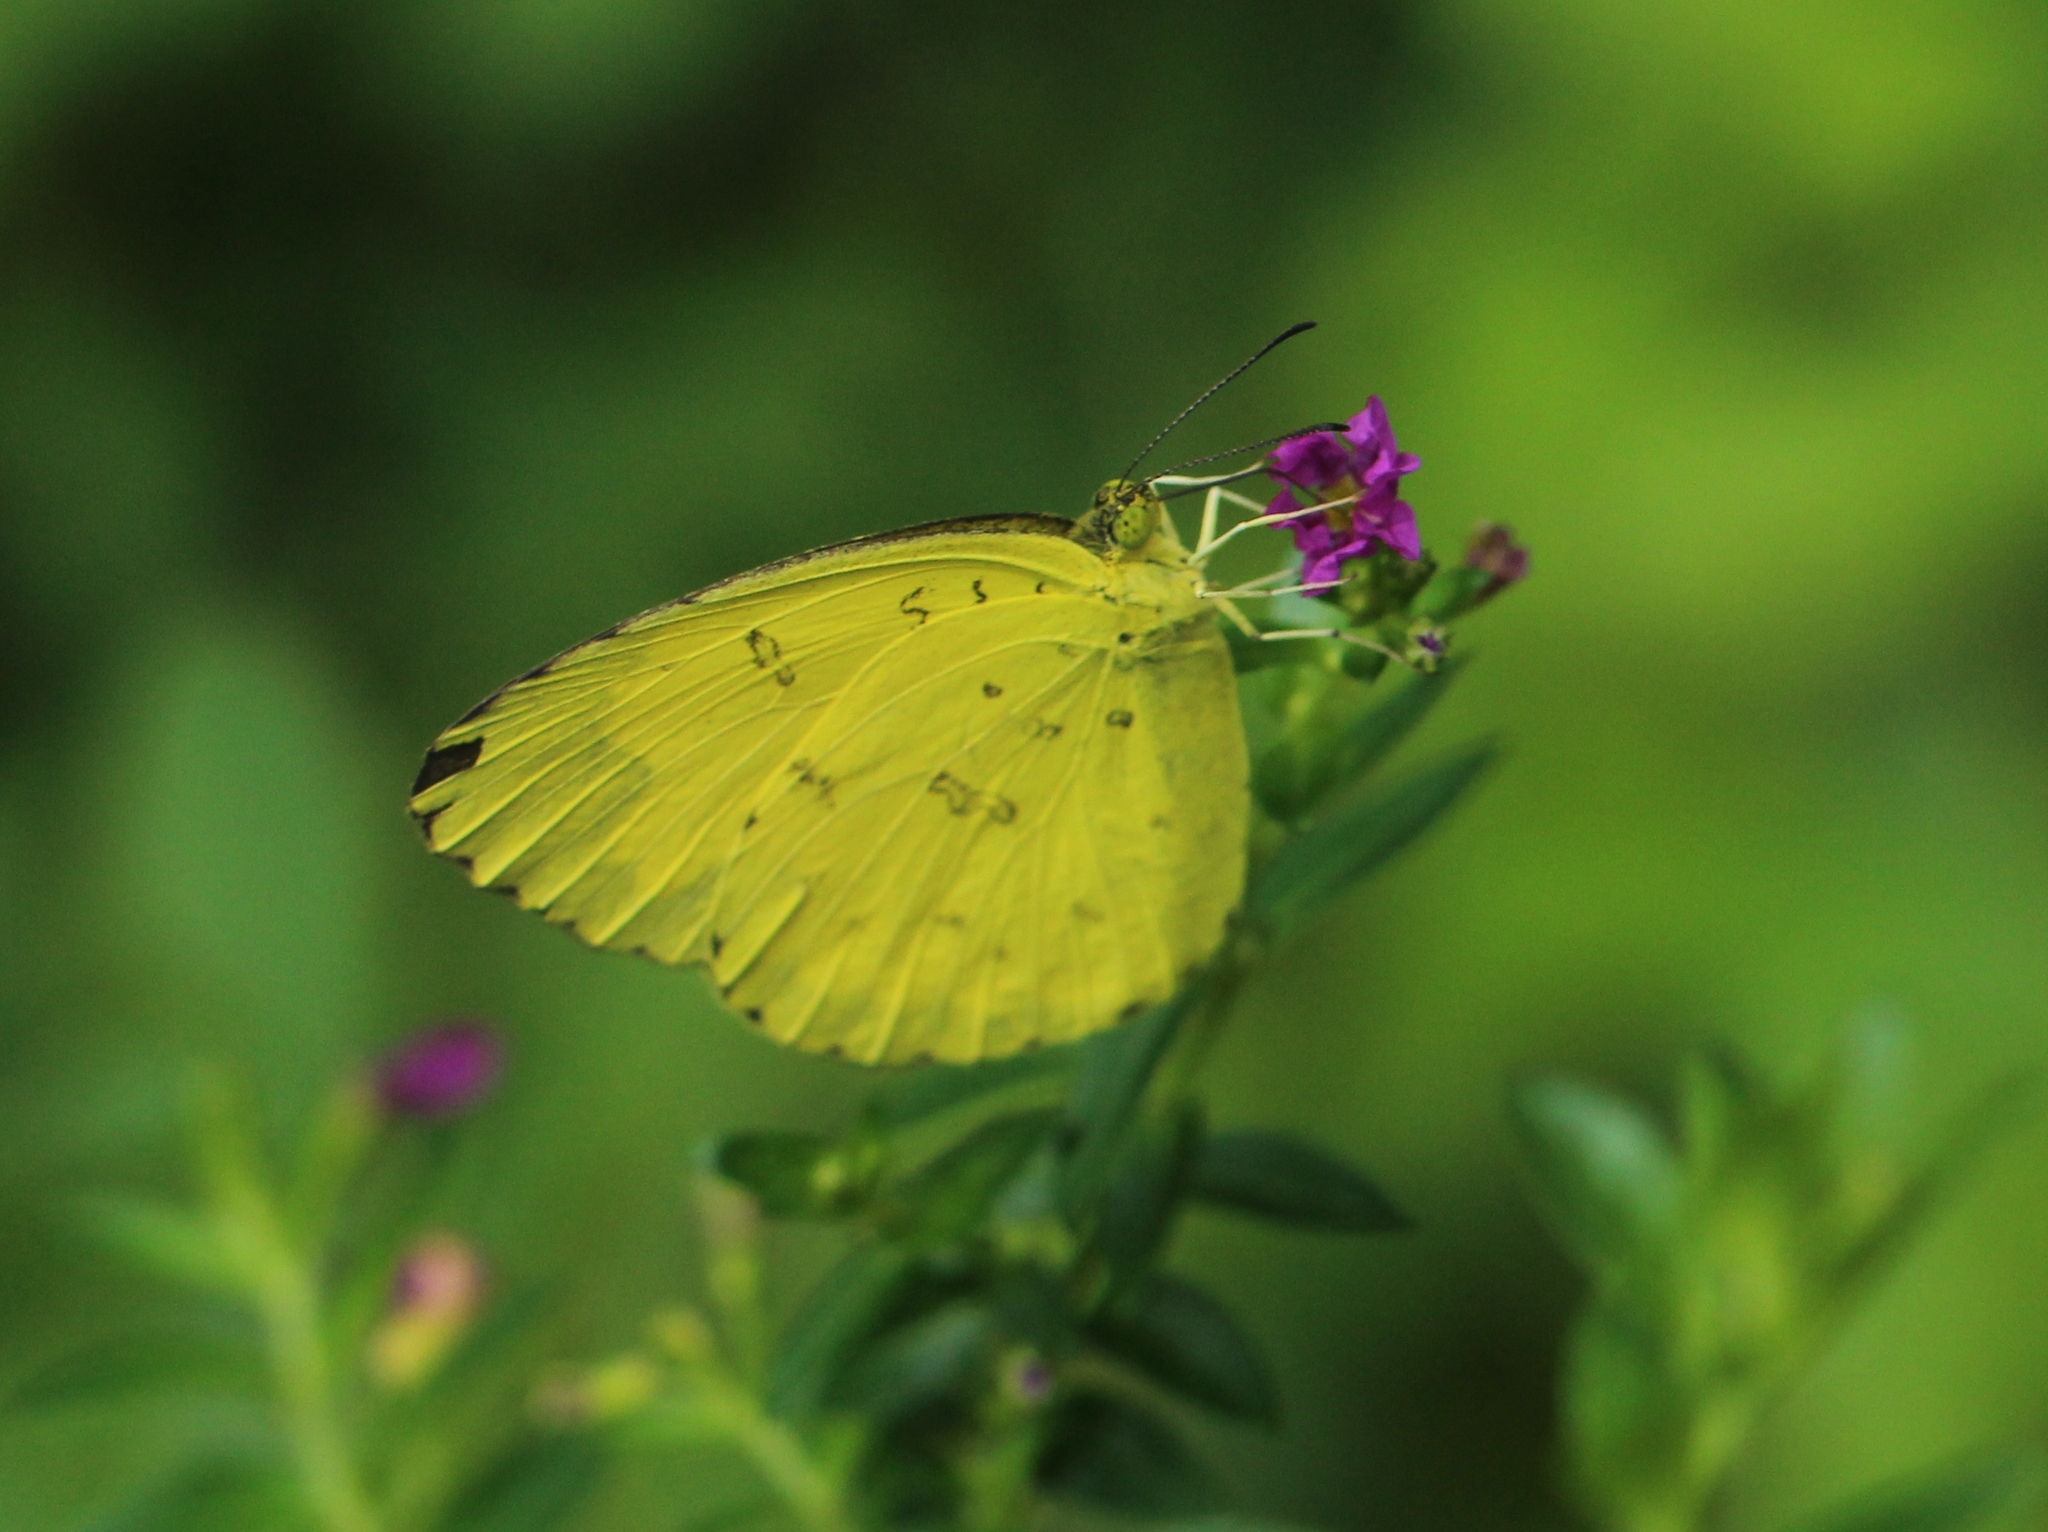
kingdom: Animalia
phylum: Arthropoda
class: Insecta
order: Lepidoptera
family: Pieridae
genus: Eurema
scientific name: Eurema blanda
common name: Three-spot grass yellow
